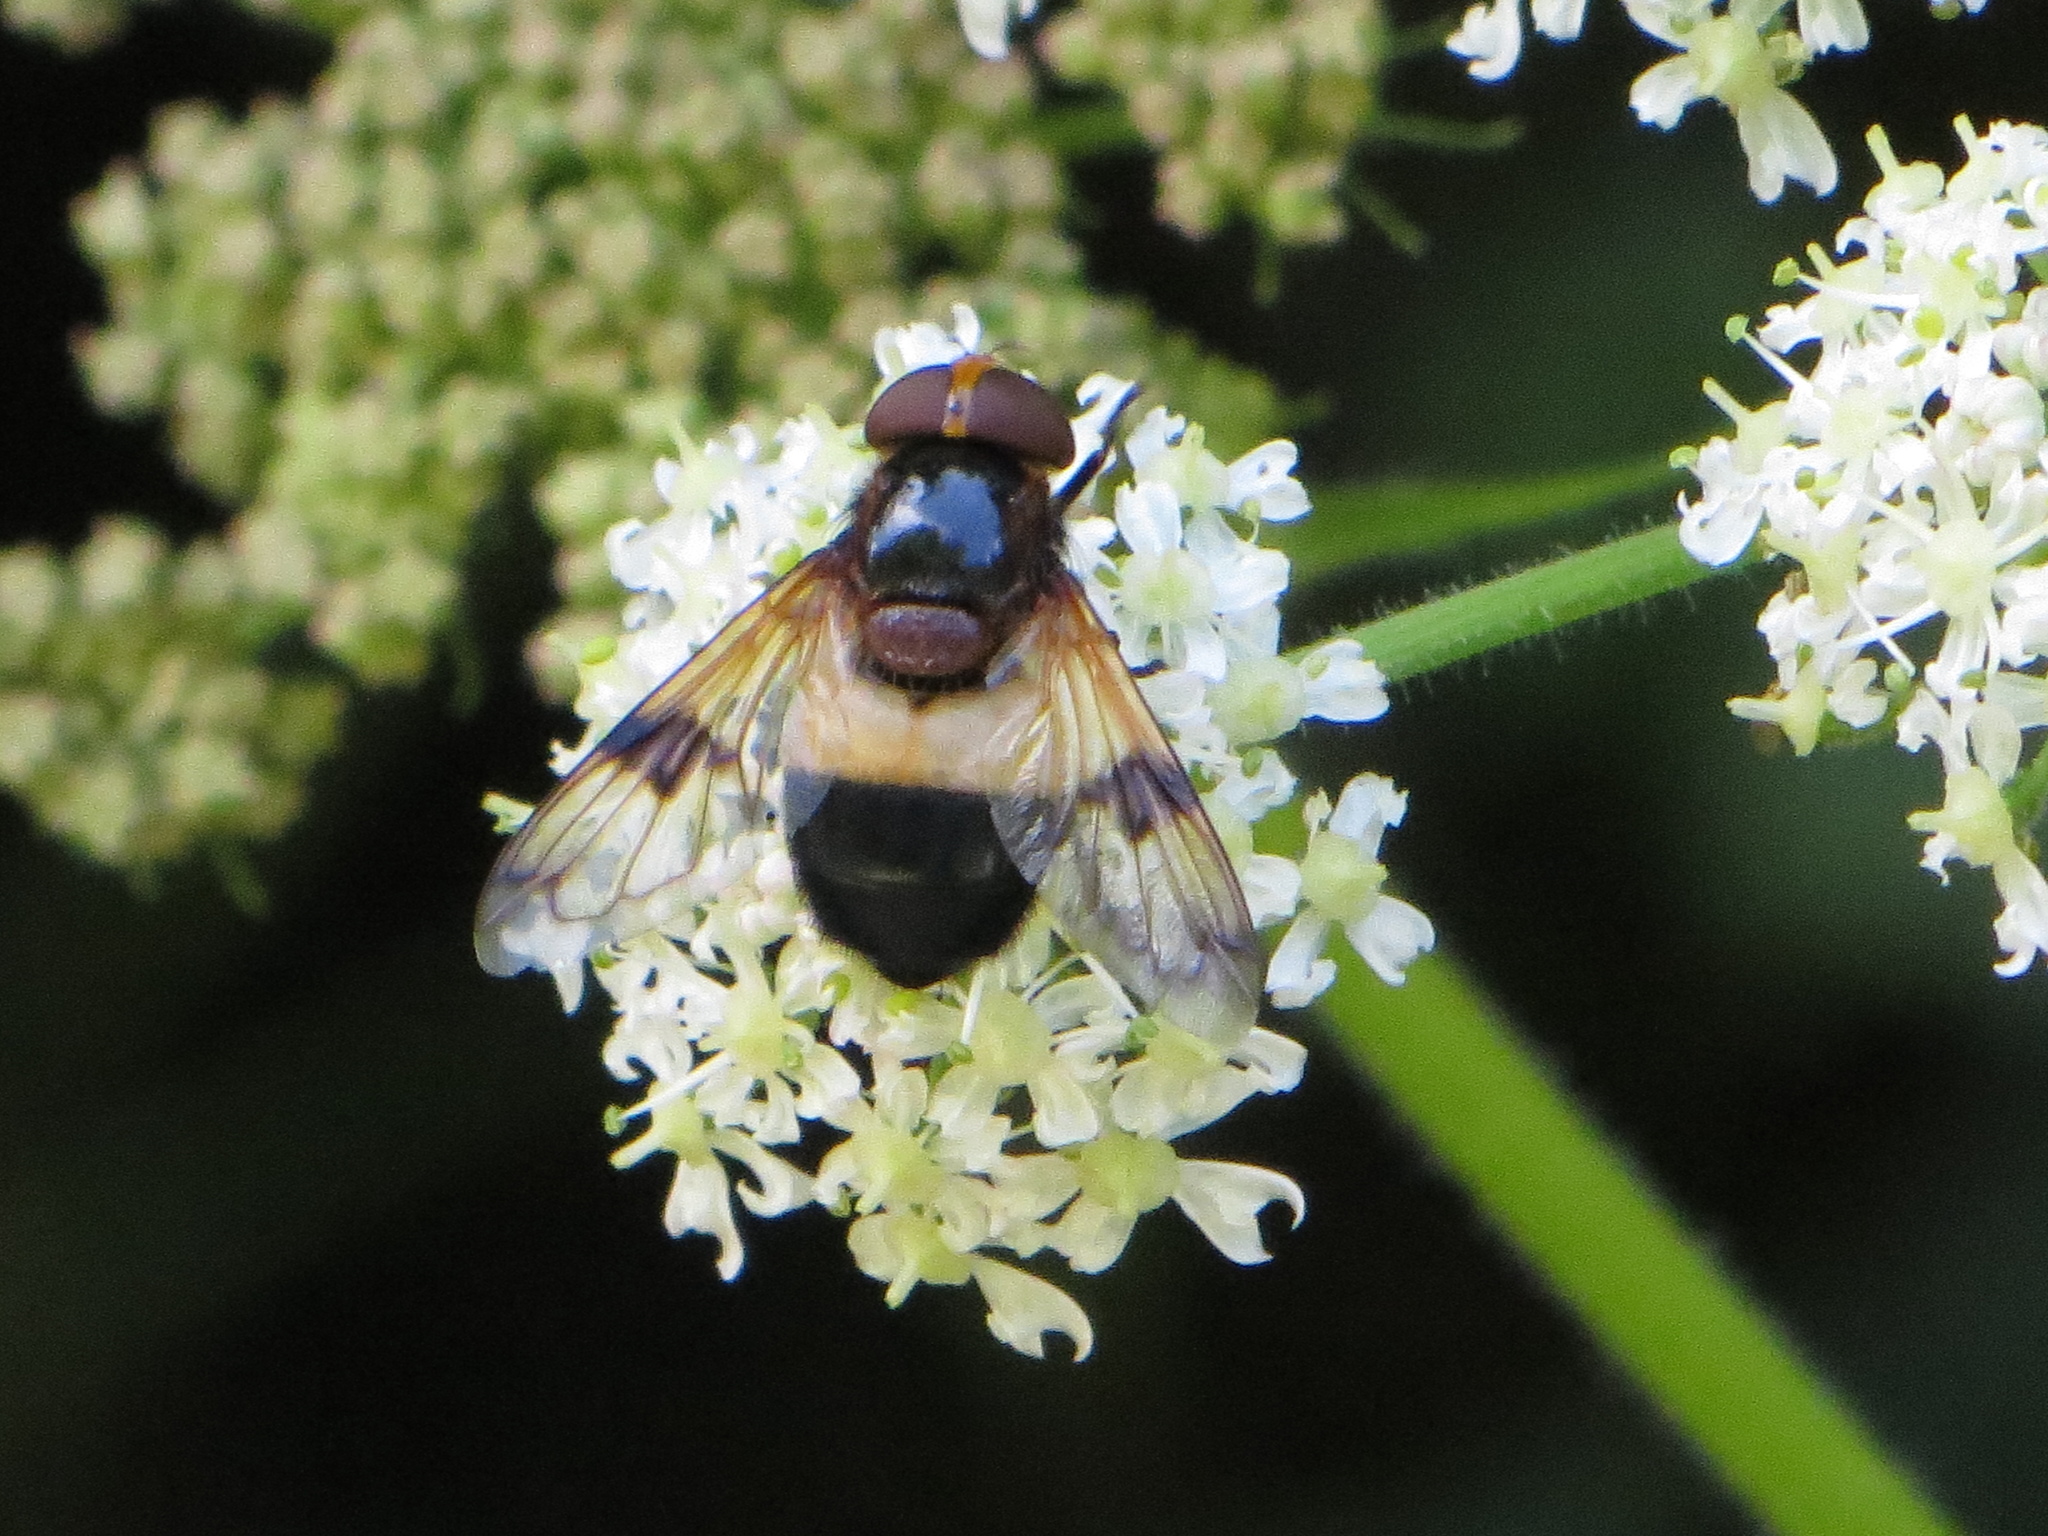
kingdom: Animalia
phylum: Arthropoda
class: Insecta
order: Diptera
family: Syrphidae
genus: Volucella
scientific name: Volucella pellucens
